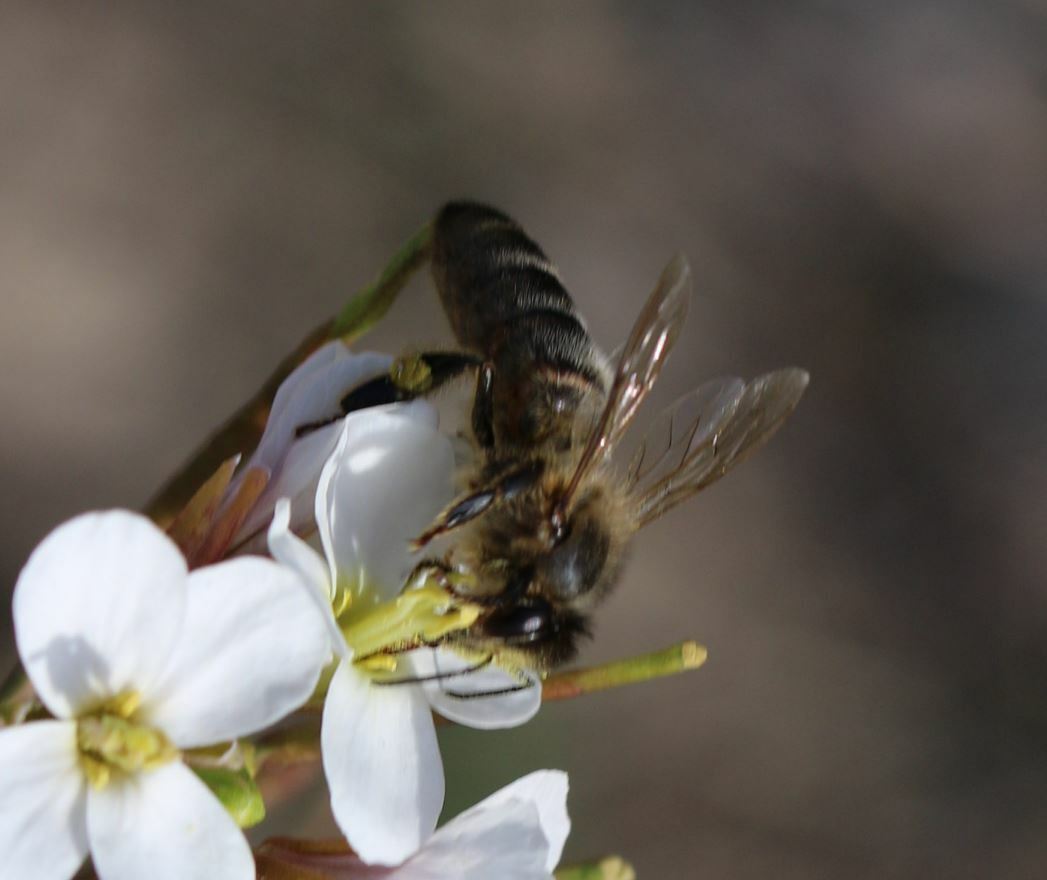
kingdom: Animalia
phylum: Arthropoda
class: Insecta
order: Hymenoptera
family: Apidae
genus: Apis
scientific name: Apis mellifera
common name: Honey bee
